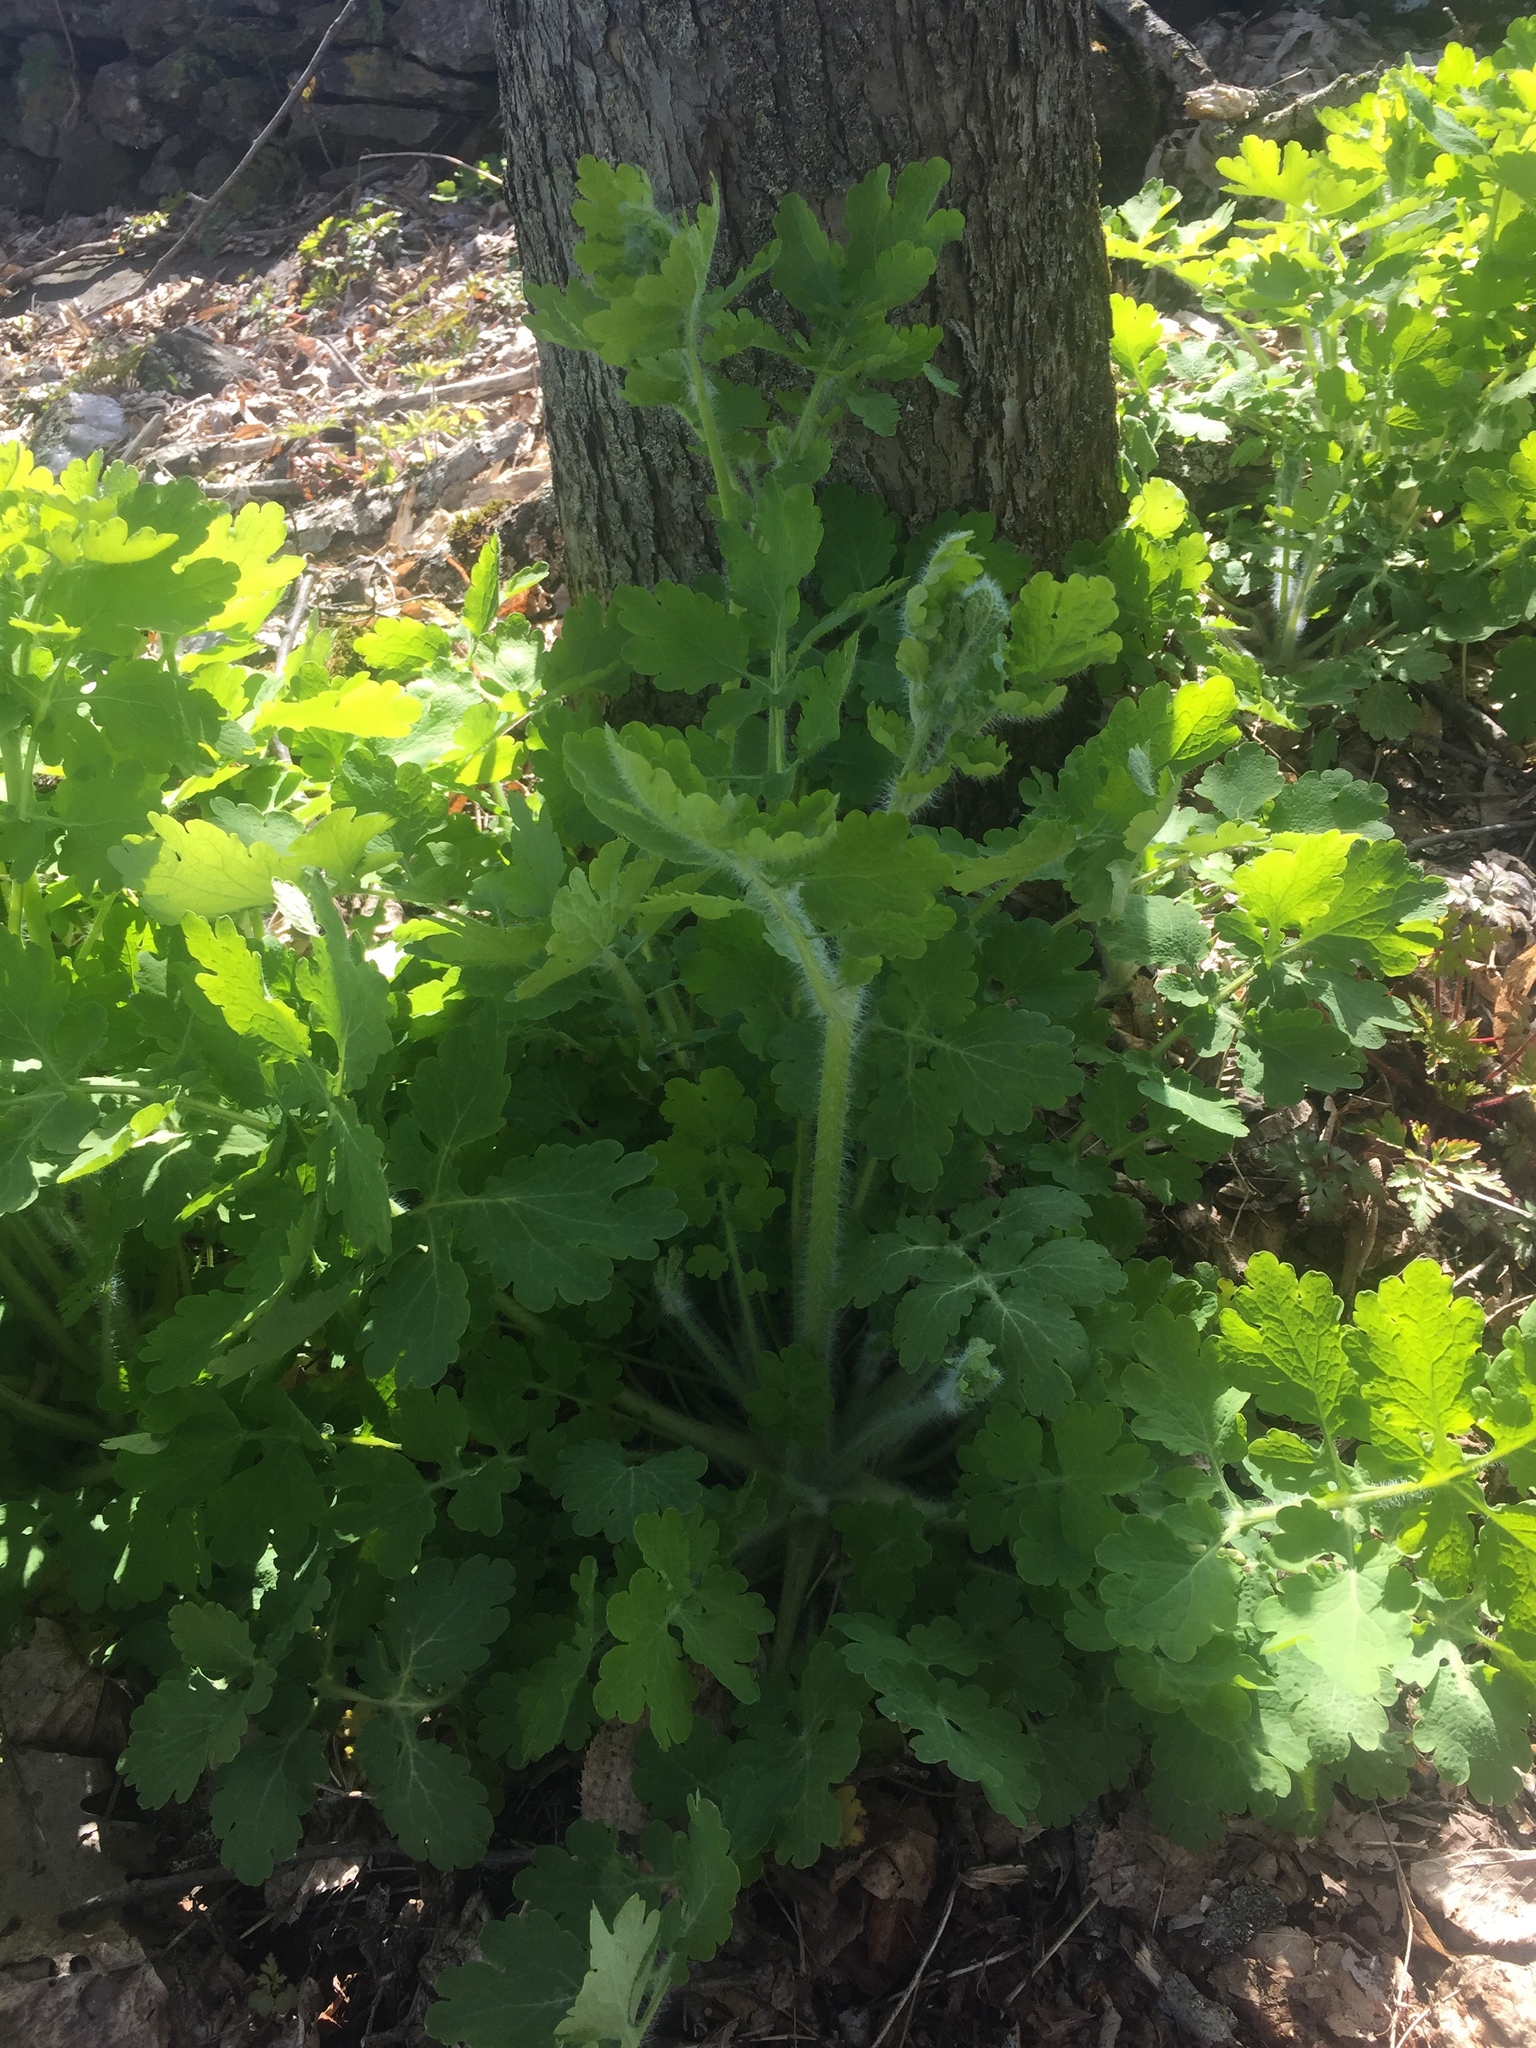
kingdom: Plantae
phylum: Tracheophyta
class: Magnoliopsida
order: Ranunculales
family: Papaveraceae
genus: Chelidonium
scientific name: Chelidonium majus
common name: Greater celandine
